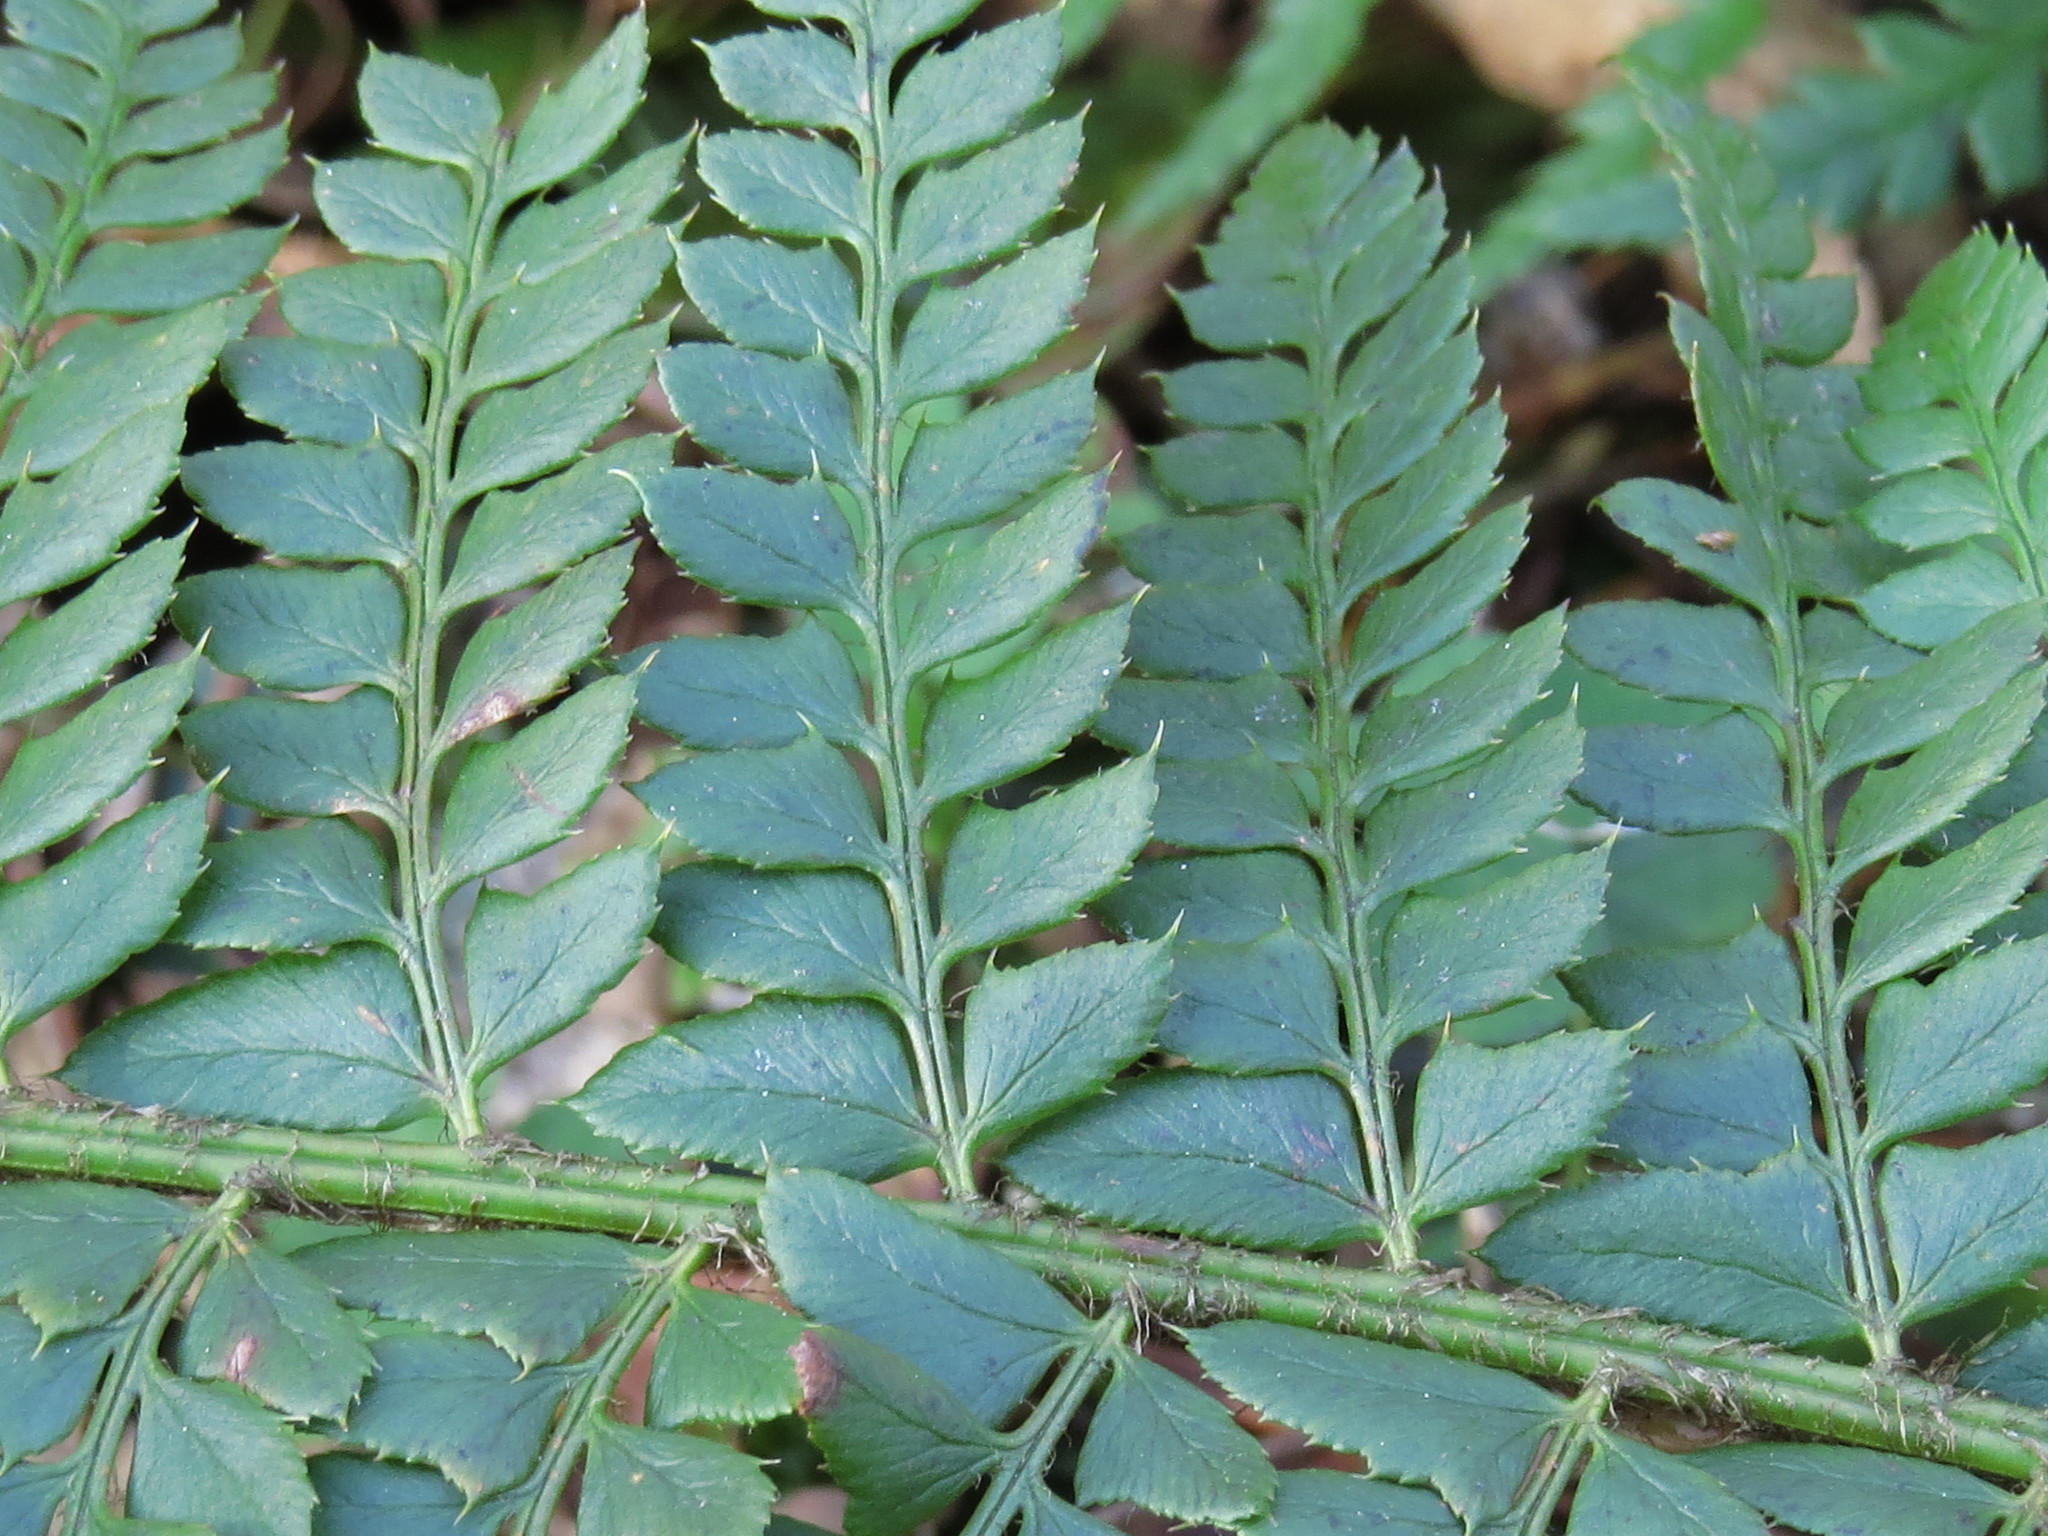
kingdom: Plantae
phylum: Tracheophyta
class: Polypodiopsida
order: Polypodiales
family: Dryopteridaceae
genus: Polystichum
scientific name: Polystichum aculeatum
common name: Hard shield-fern
